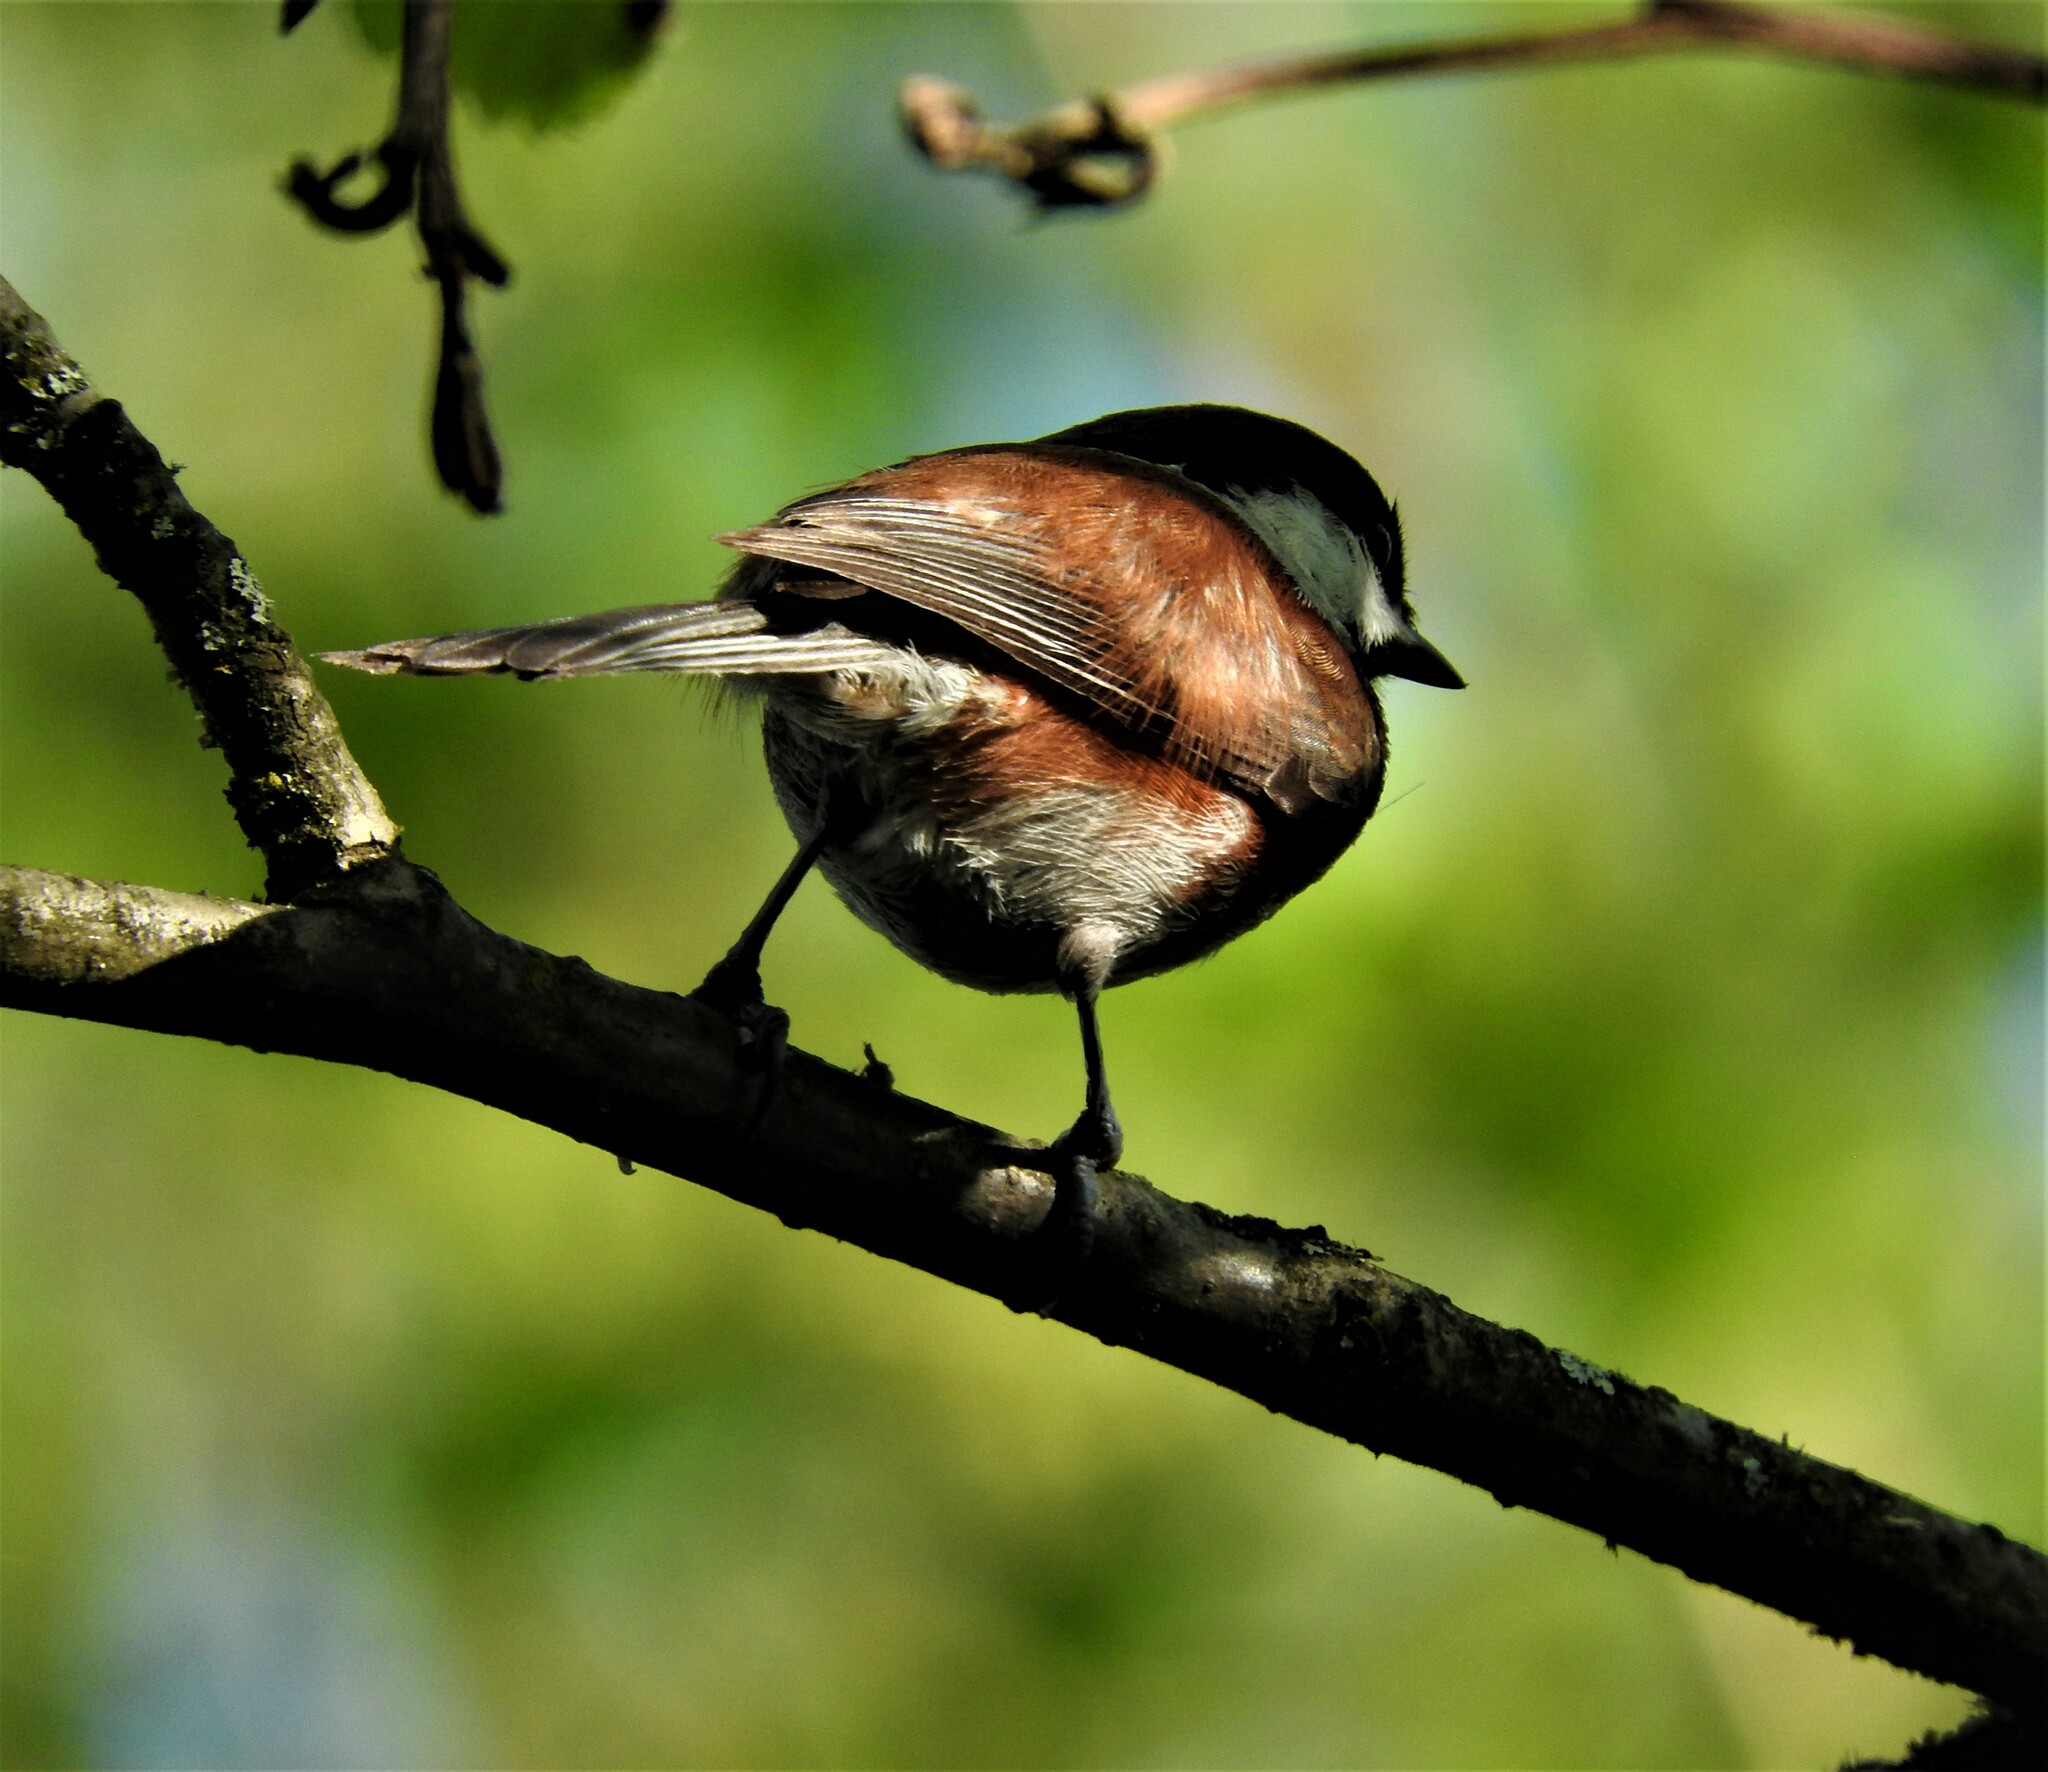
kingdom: Animalia
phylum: Chordata
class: Aves
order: Passeriformes
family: Paridae
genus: Poecile
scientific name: Poecile rufescens
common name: Chestnut-backed chickadee
